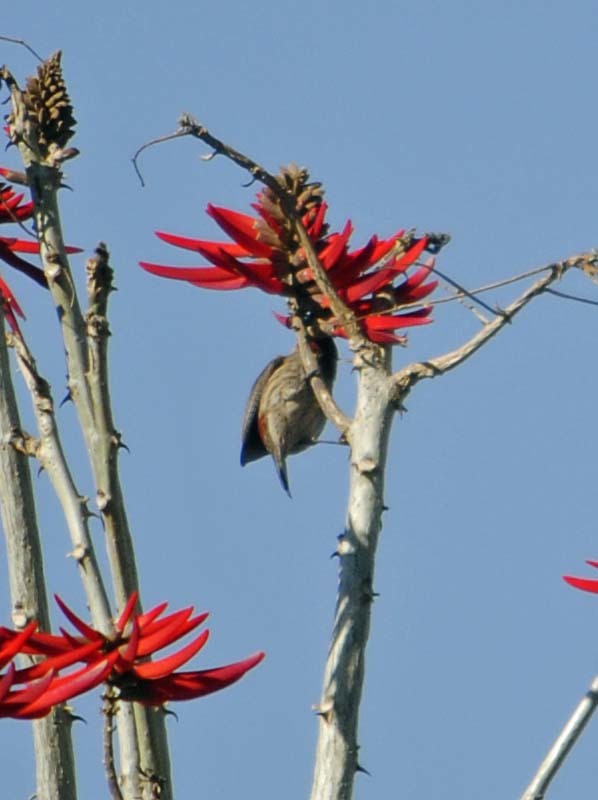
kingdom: Animalia
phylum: Chordata
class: Aves
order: Passeriformes
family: Fringillidae
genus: Haemorhous
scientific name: Haemorhous mexicanus
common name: House finch
